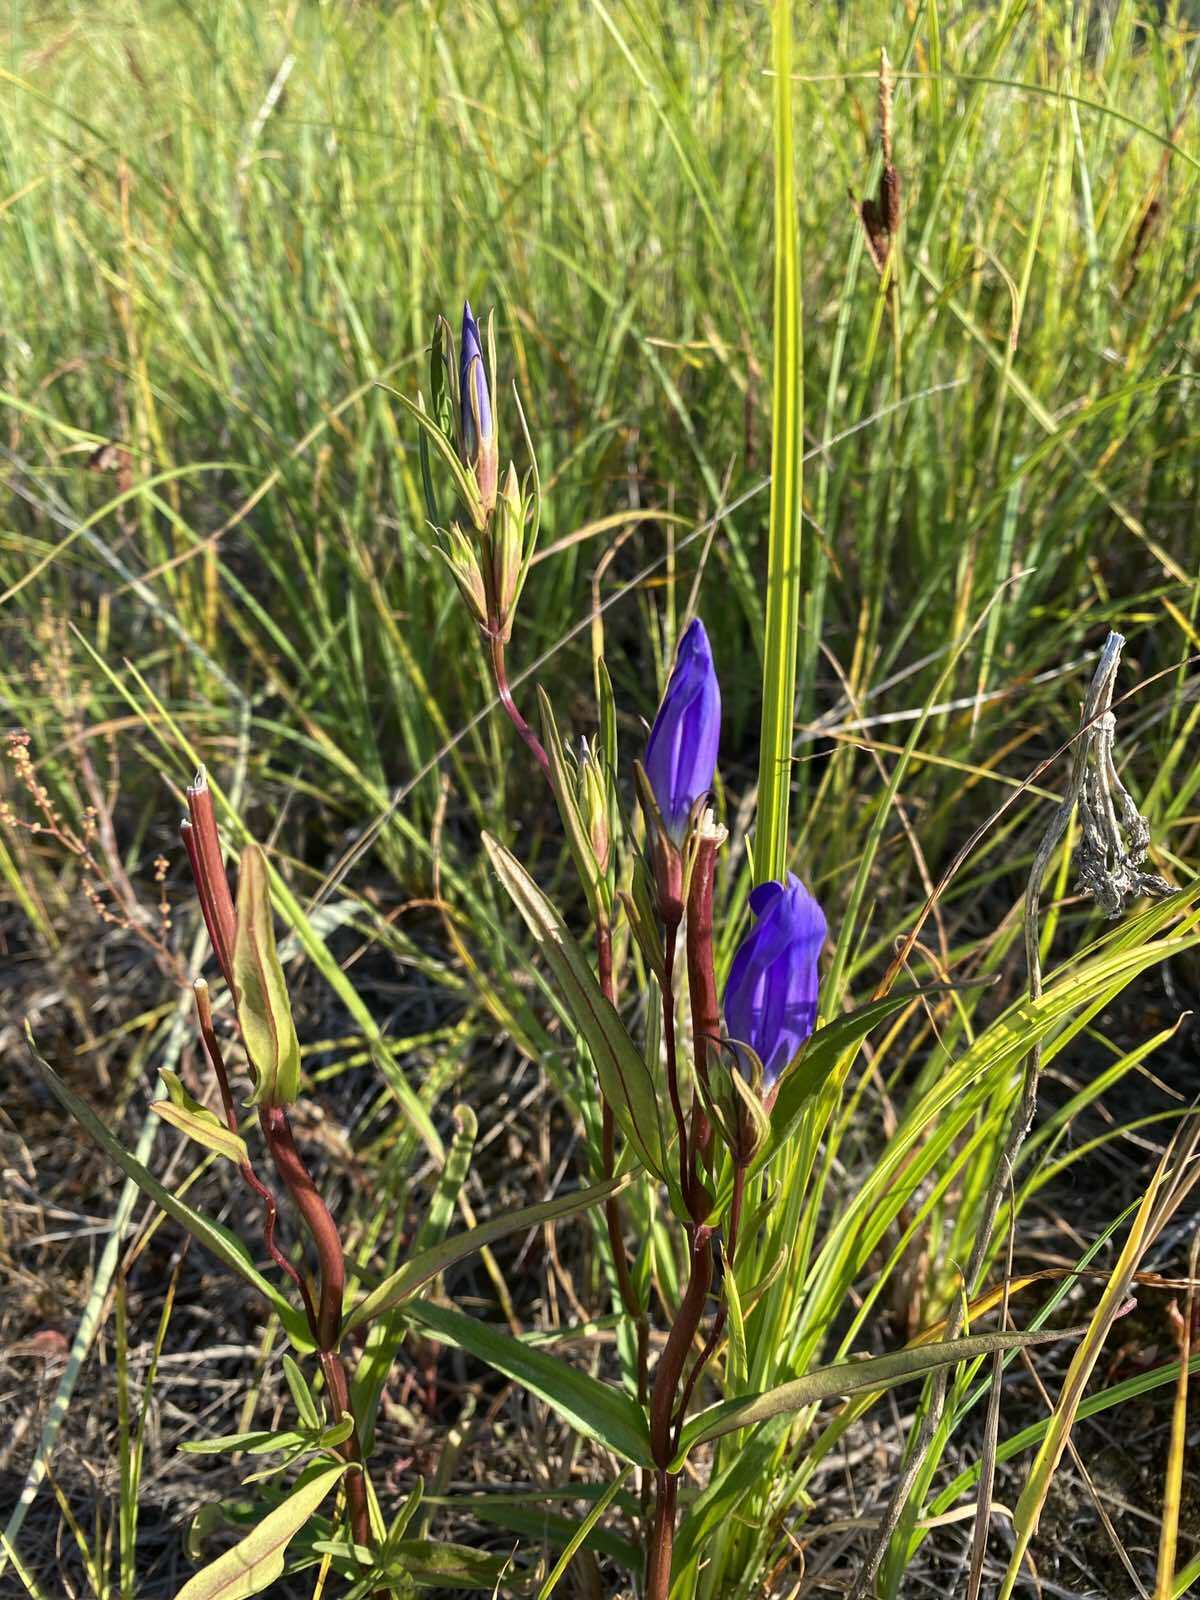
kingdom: Plantae
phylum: Tracheophyta
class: Magnoliopsida
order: Gentianales
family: Gentianaceae
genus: Gentiana
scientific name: Gentiana pneumonanthe
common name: Marsh gentian
